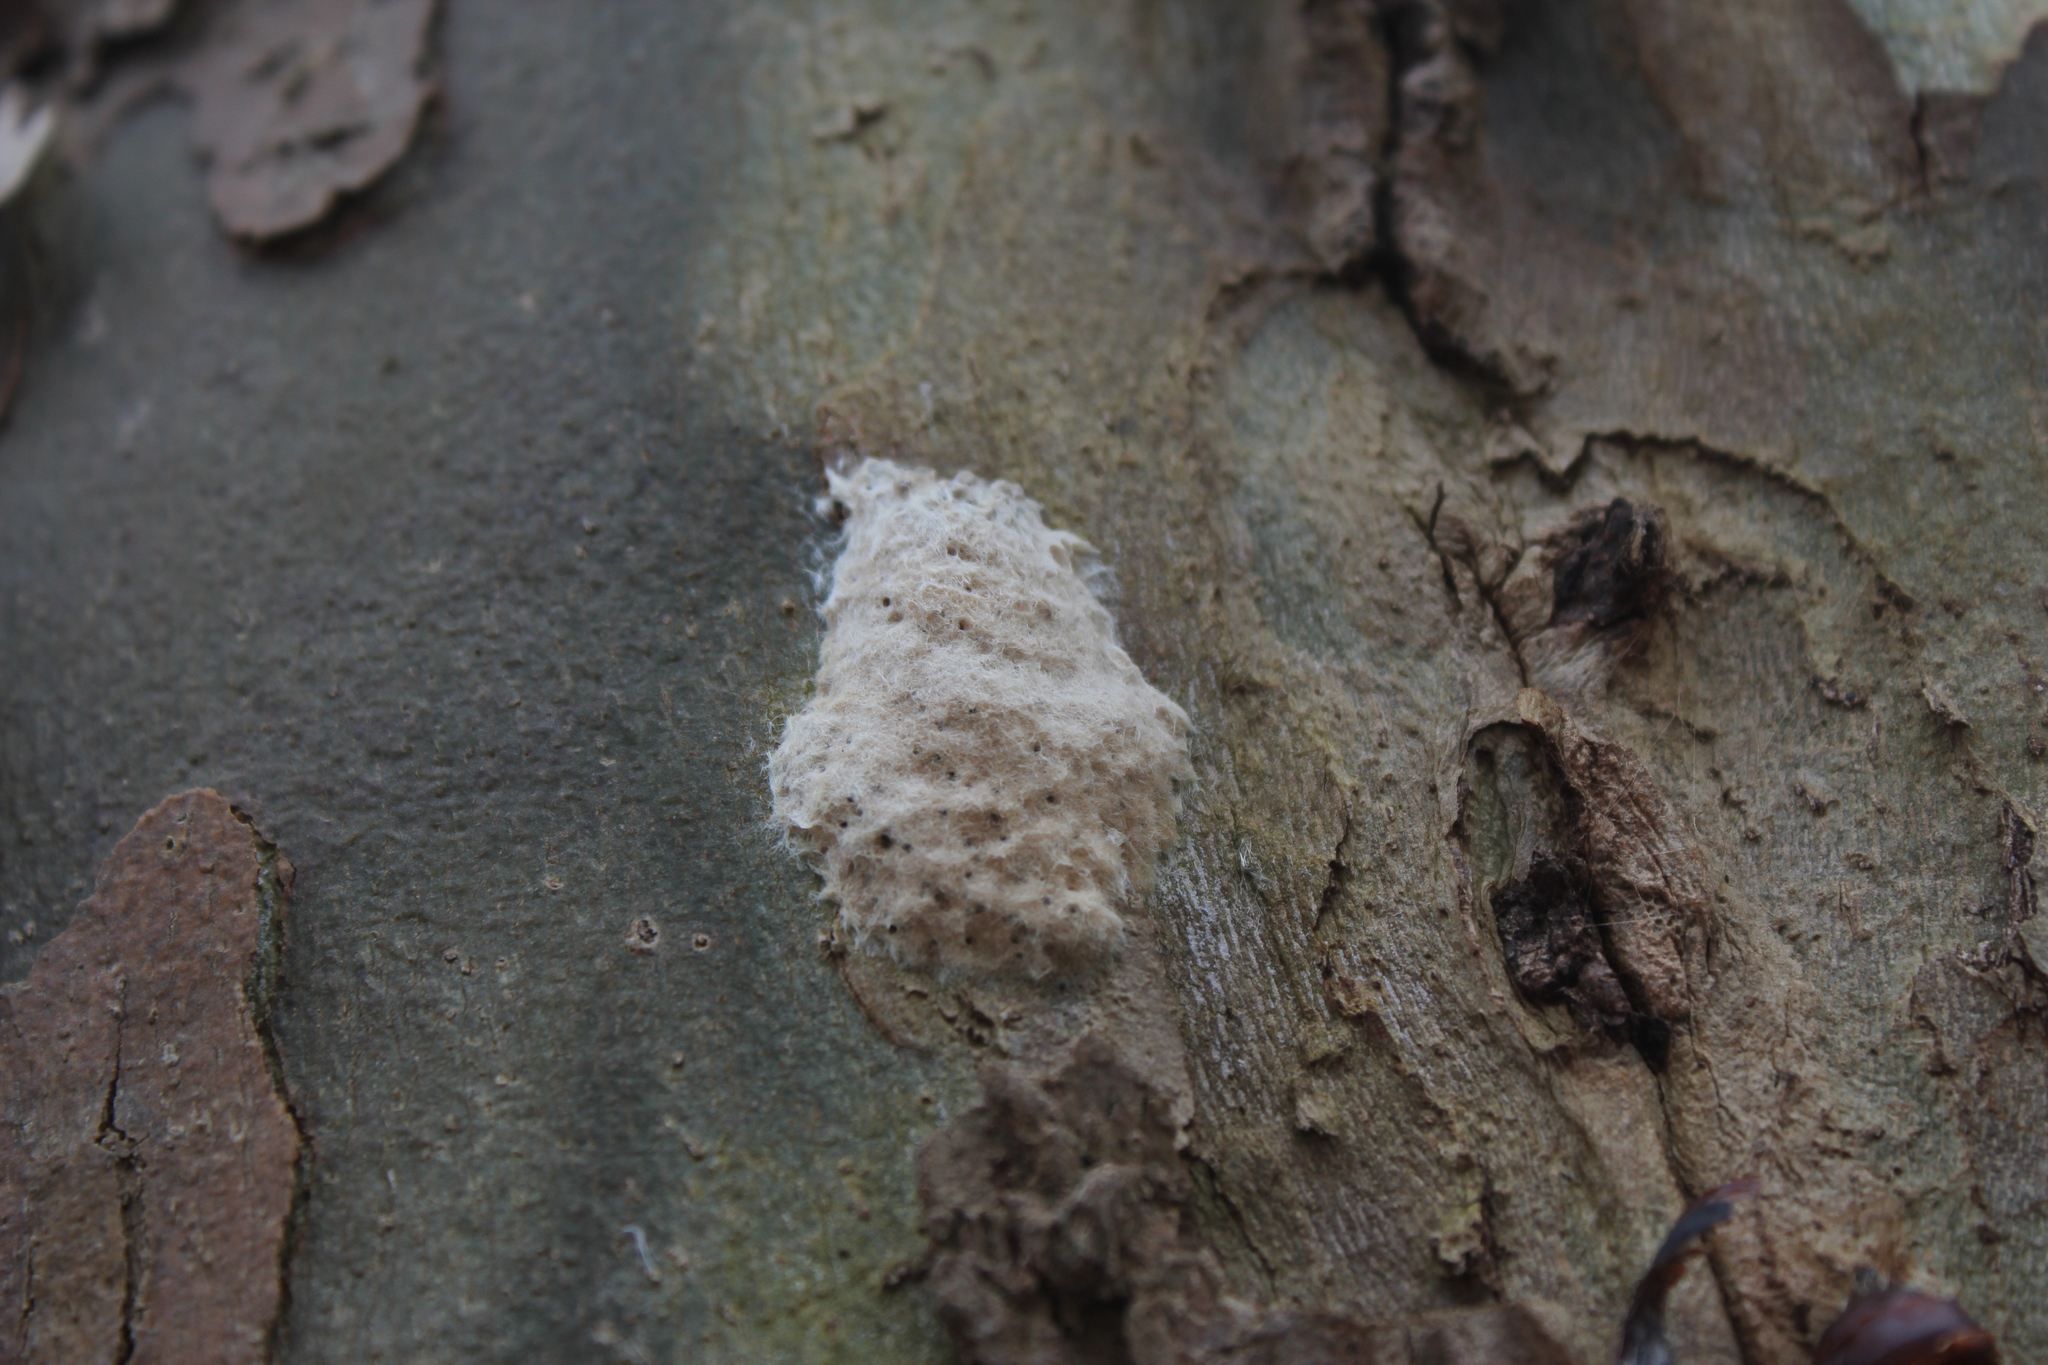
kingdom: Animalia
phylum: Arthropoda
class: Insecta
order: Lepidoptera
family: Erebidae
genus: Lymantria
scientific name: Lymantria dispar
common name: Gypsy moth
